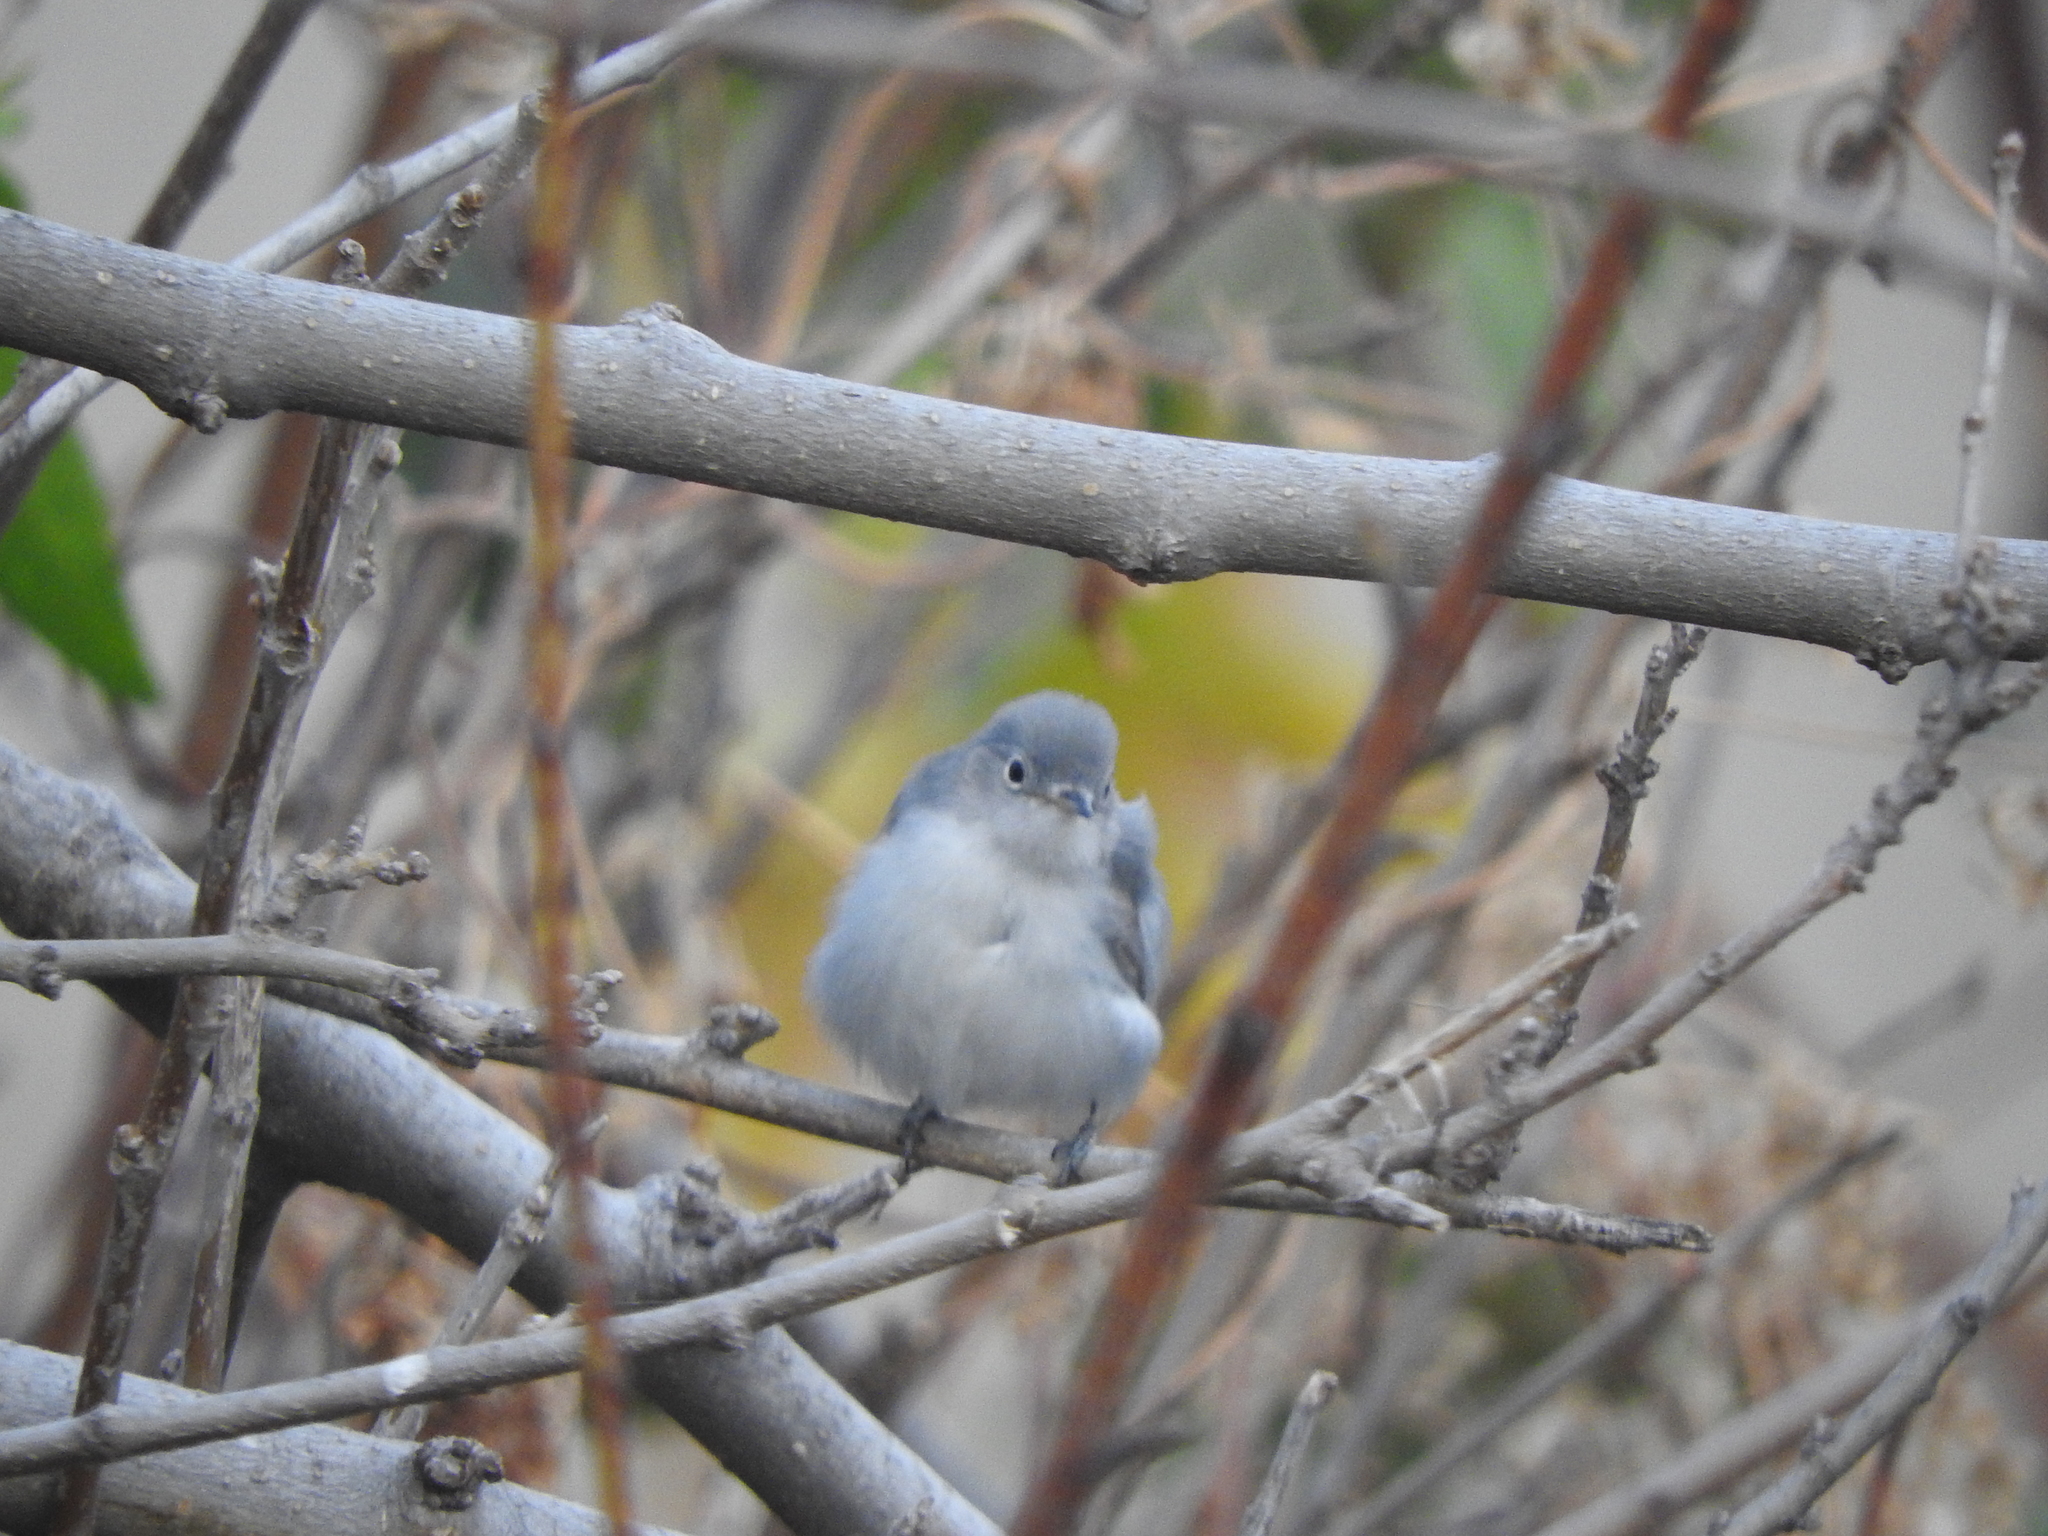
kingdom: Animalia
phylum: Chordata
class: Aves
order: Passeriformes
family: Polioptilidae
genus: Polioptila
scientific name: Polioptila caerulea
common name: Blue-gray gnatcatcher
